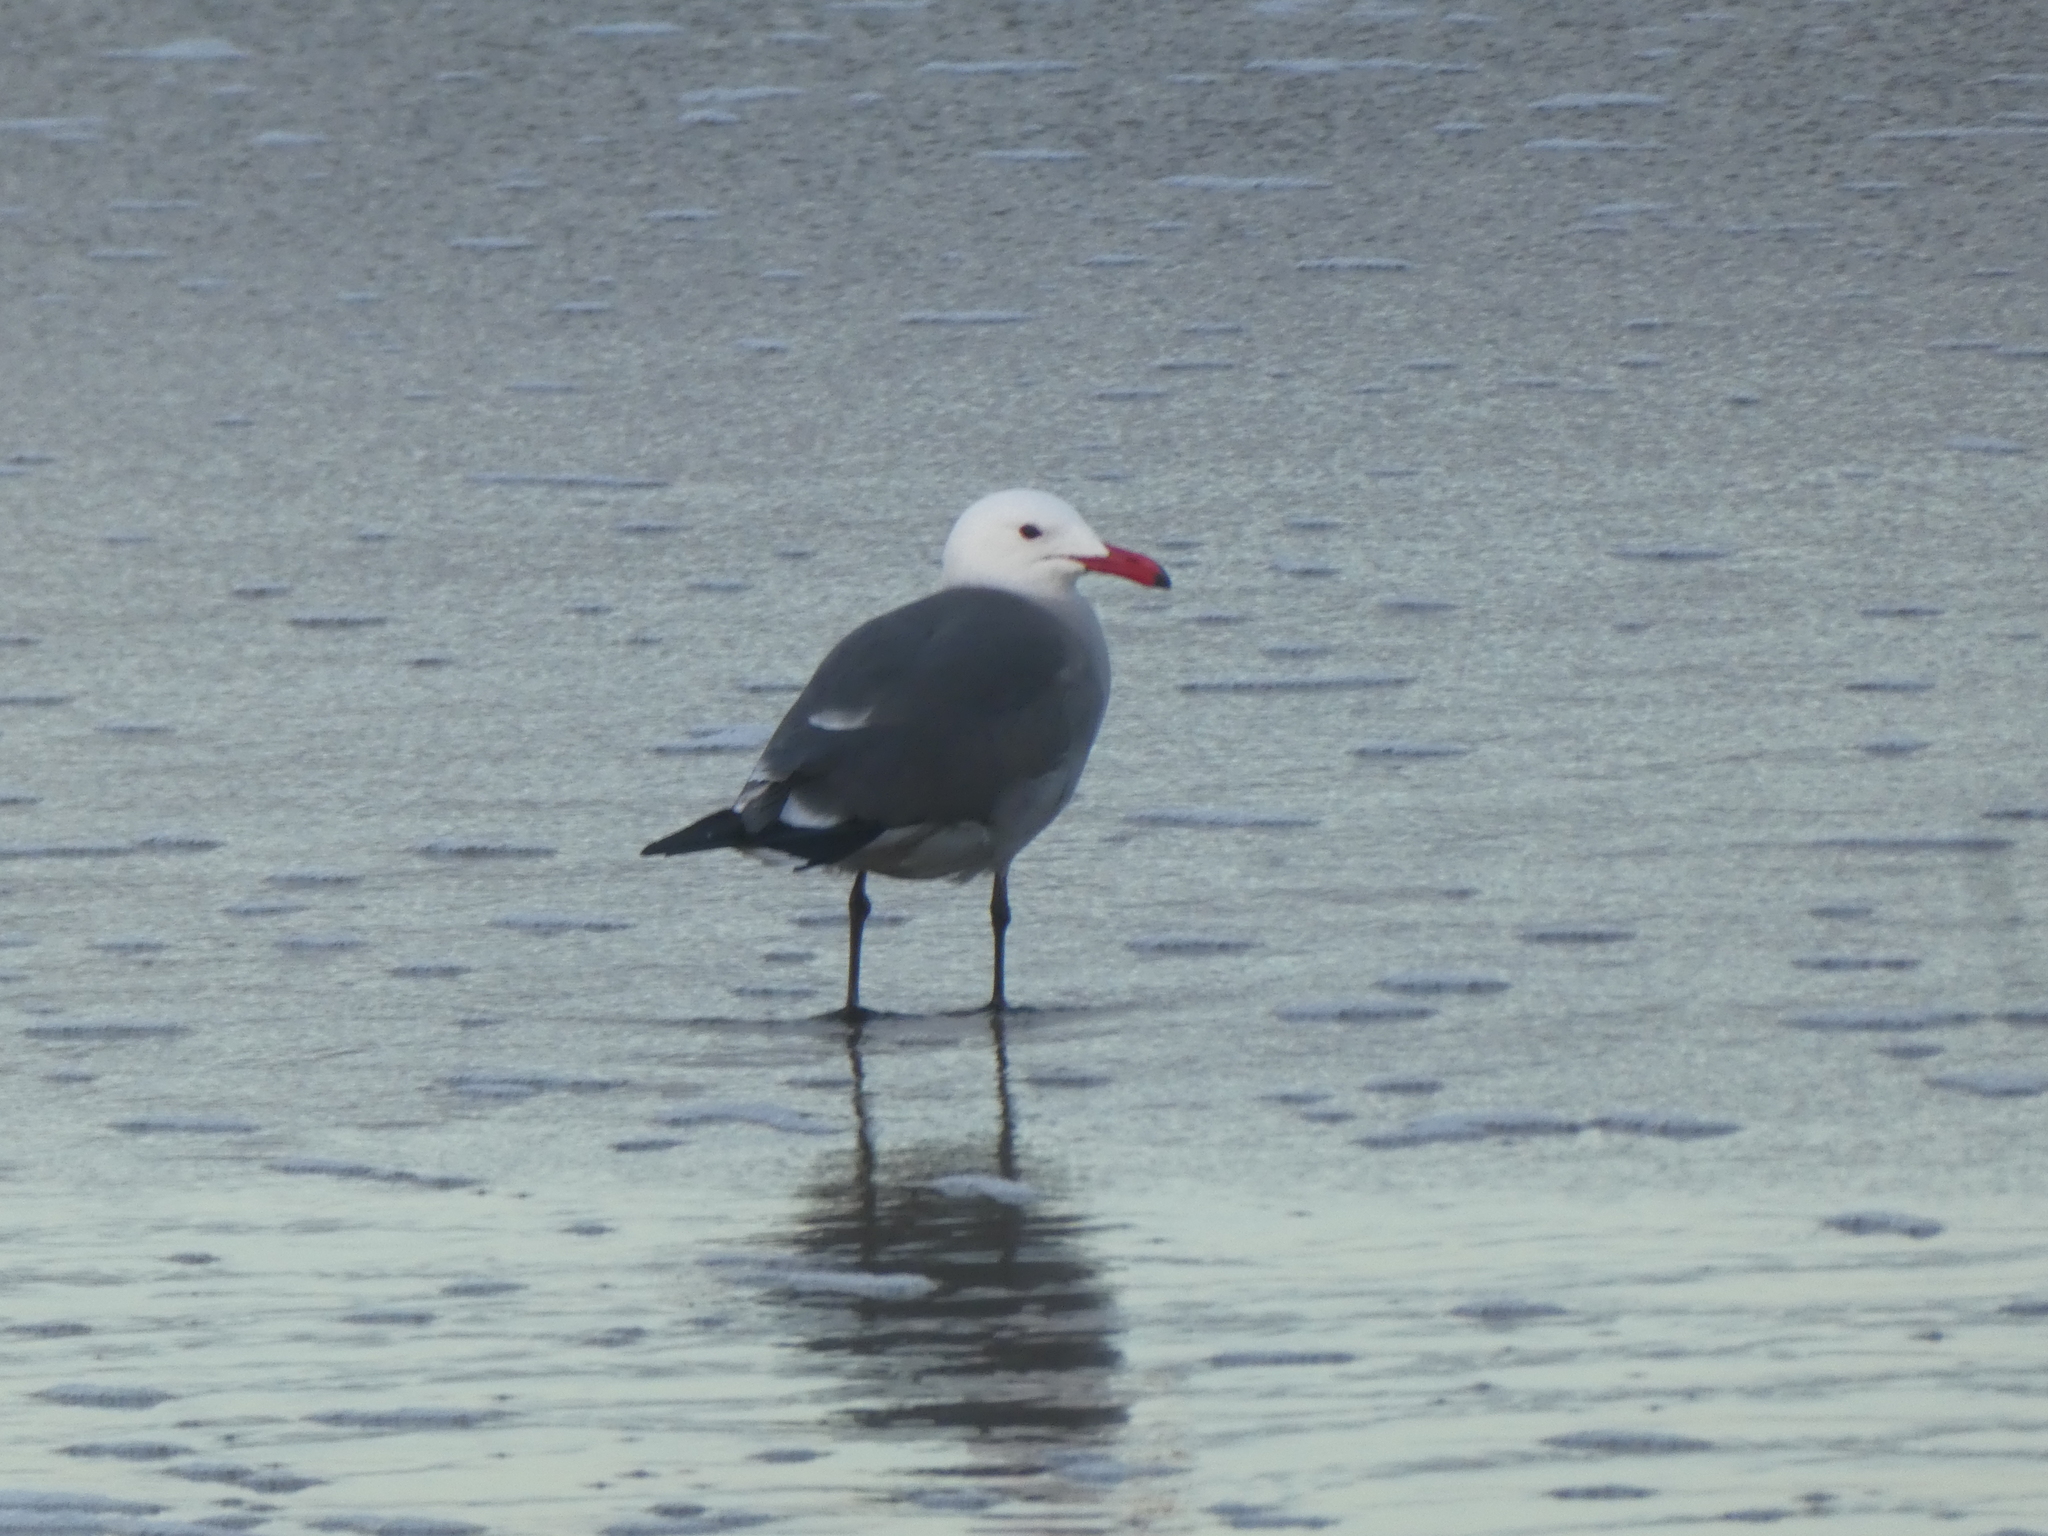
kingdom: Animalia
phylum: Chordata
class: Aves
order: Charadriiformes
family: Laridae
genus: Larus
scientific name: Larus heermanni
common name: Heermann's gull
